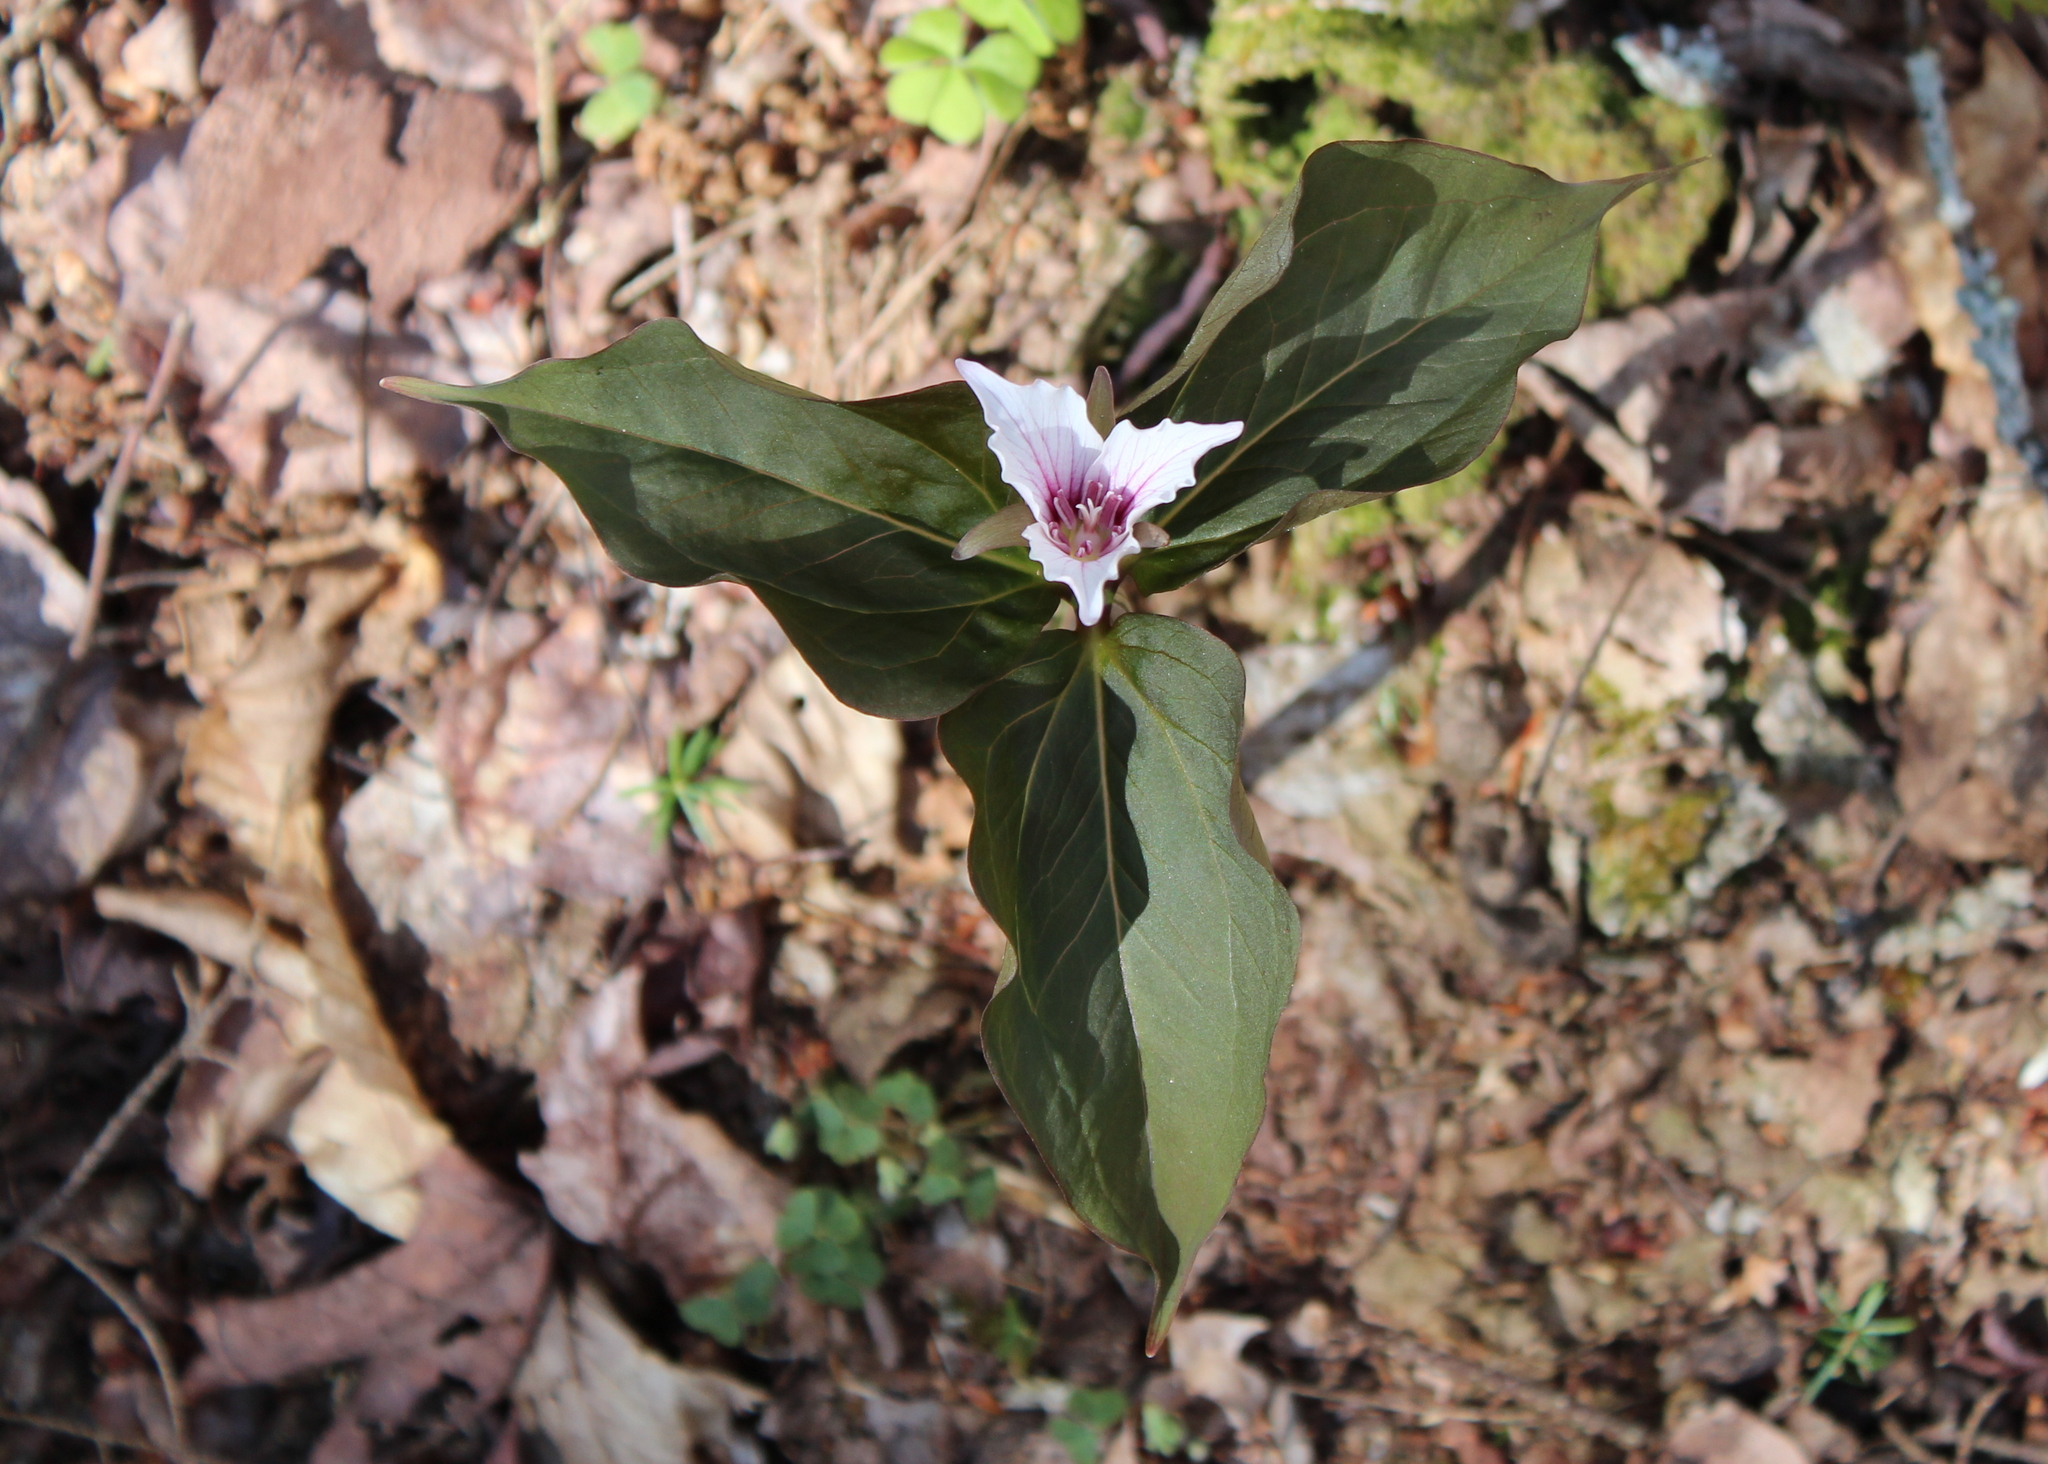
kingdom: Plantae
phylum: Tracheophyta
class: Liliopsida
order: Liliales
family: Melanthiaceae
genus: Trillium
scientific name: Trillium undulatum
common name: Paint trillium
